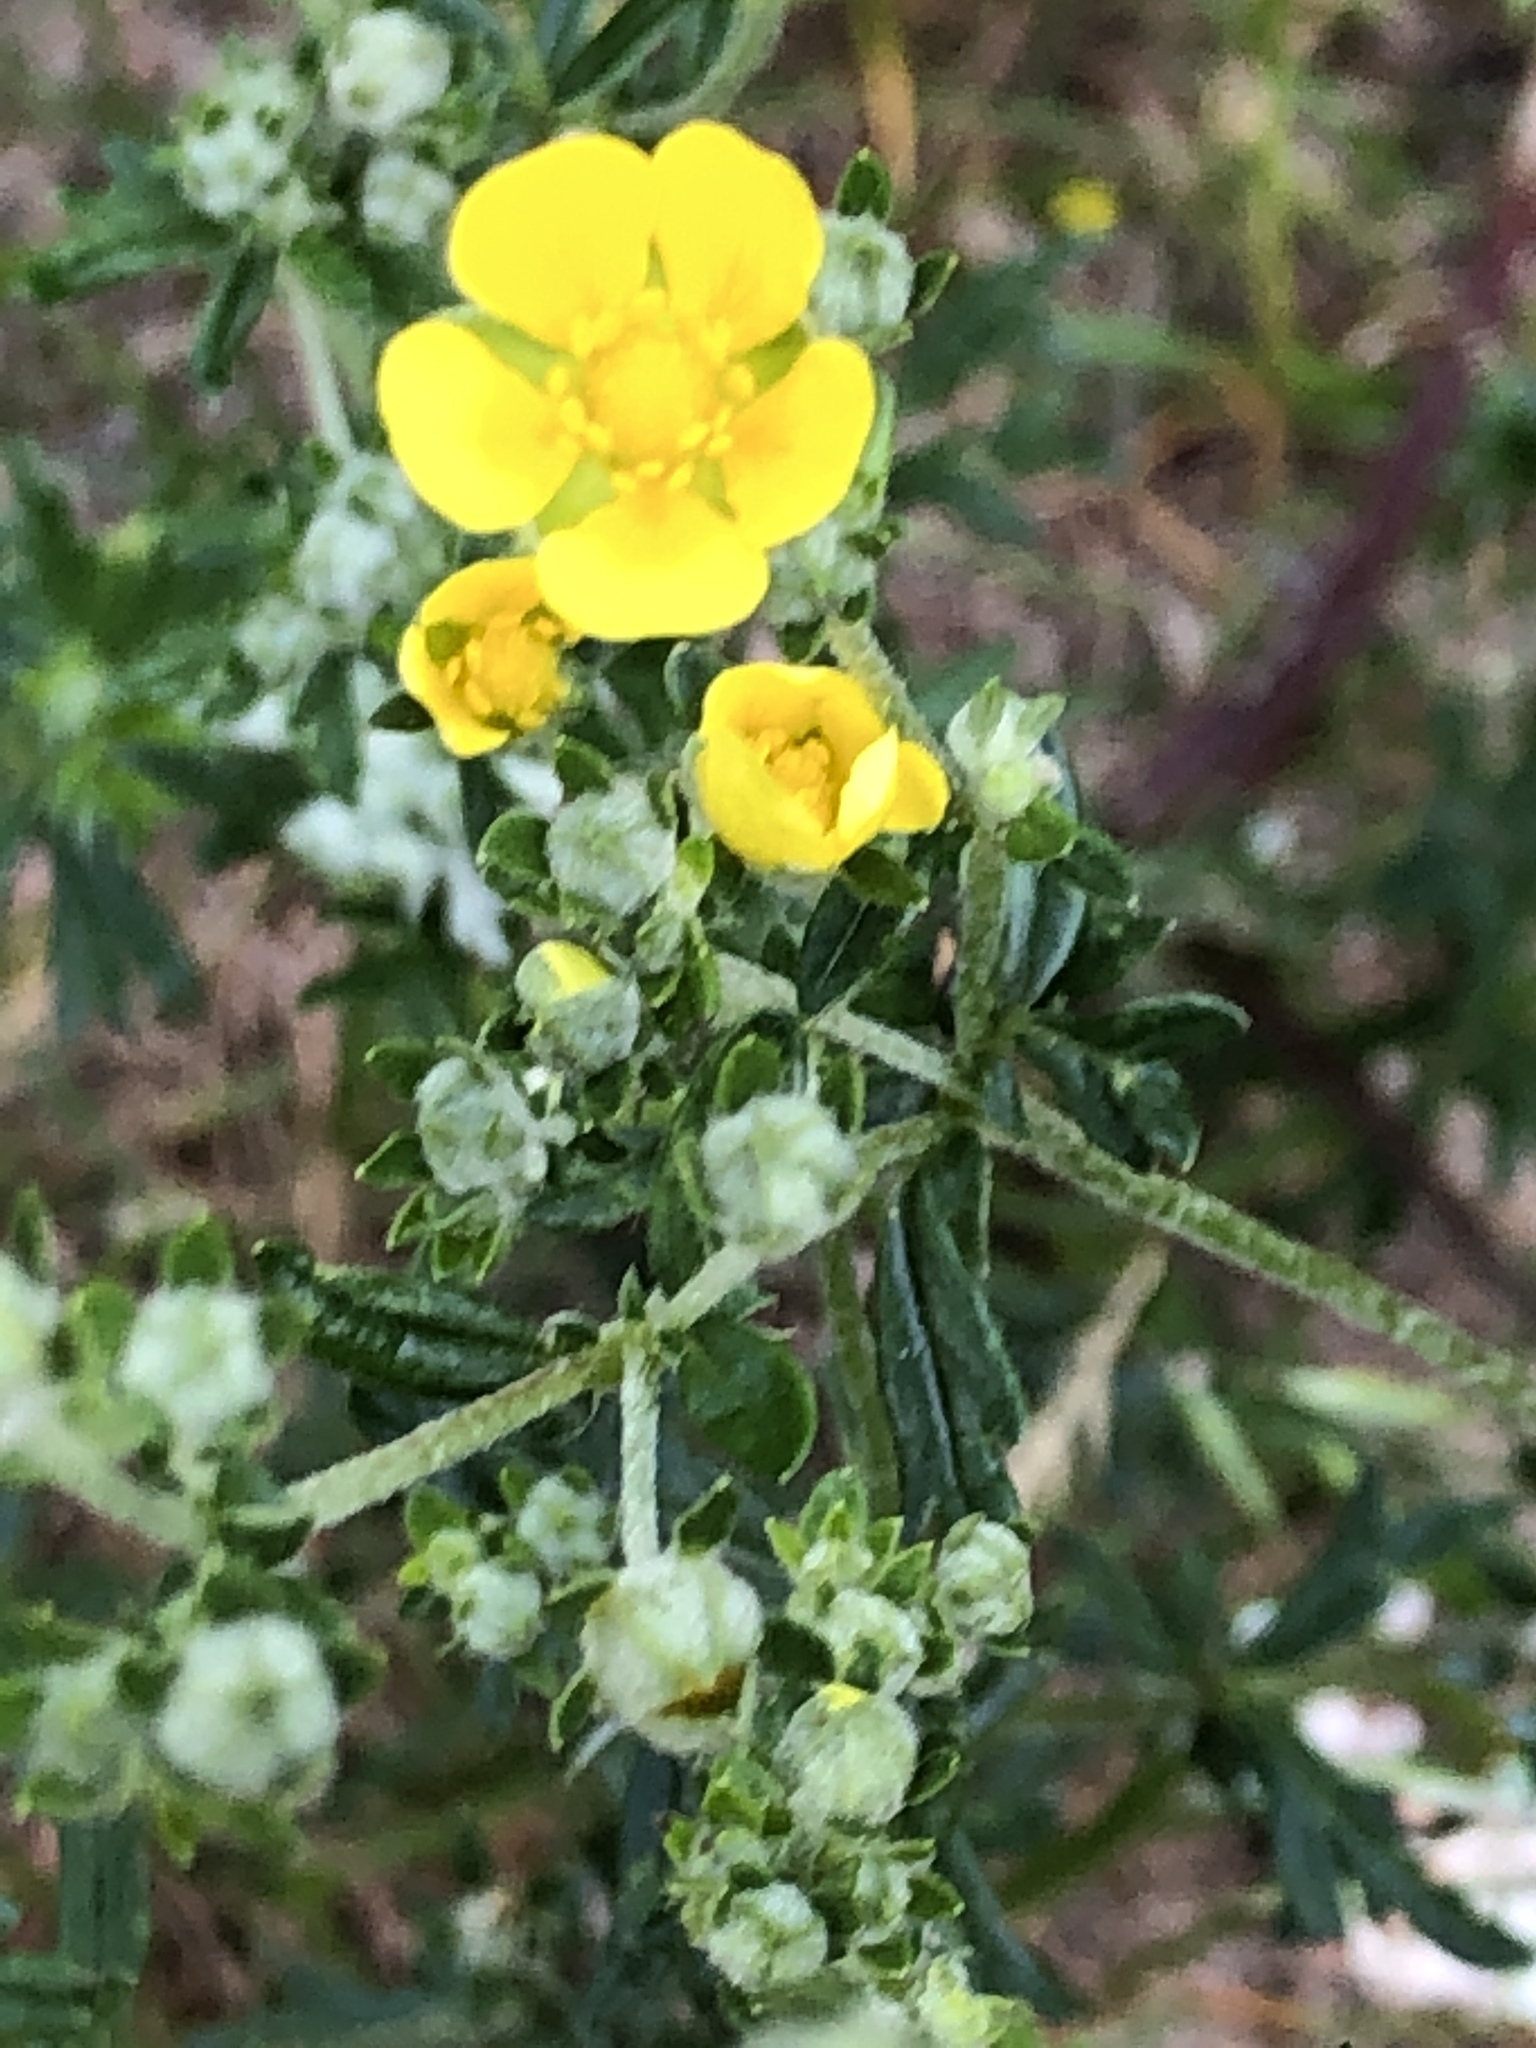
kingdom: Plantae
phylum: Tracheophyta
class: Magnoliopsida
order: Rosales
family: Rosaceae
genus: Potentilla
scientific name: Potentilla argentea
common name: Hoary cinquefoil
